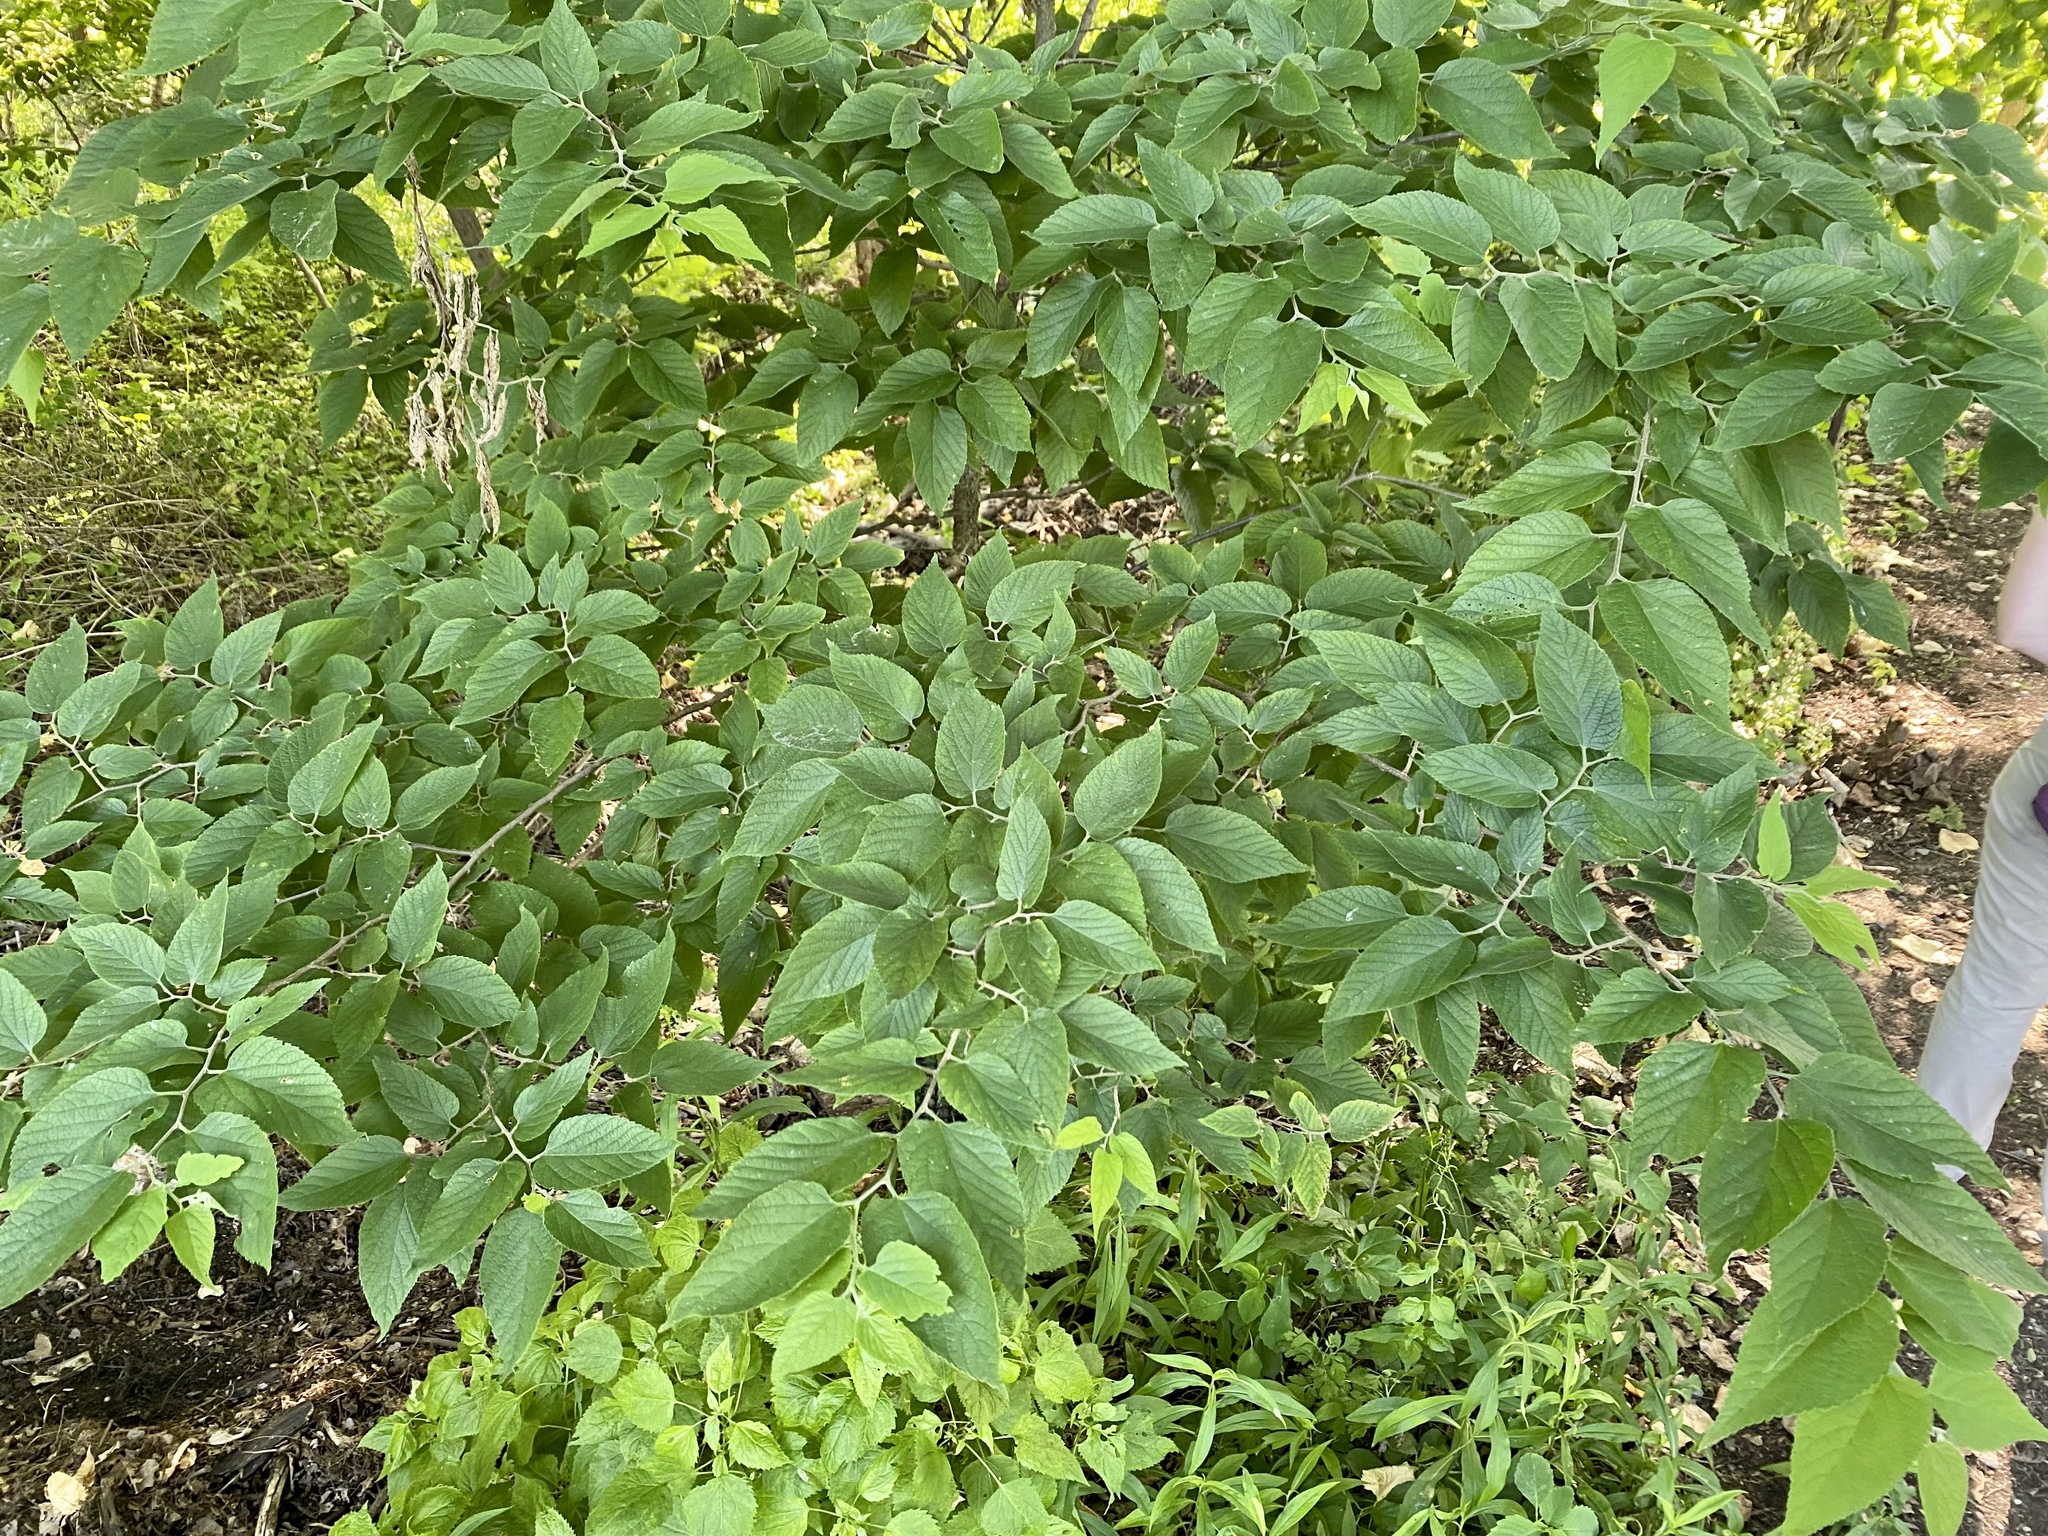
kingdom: Plantae
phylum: Tracheophyta
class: Magnoliopsida
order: Rosales
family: Cannabaceae
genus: Celtis
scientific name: Celtis occidentalis
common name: Common hackberry
